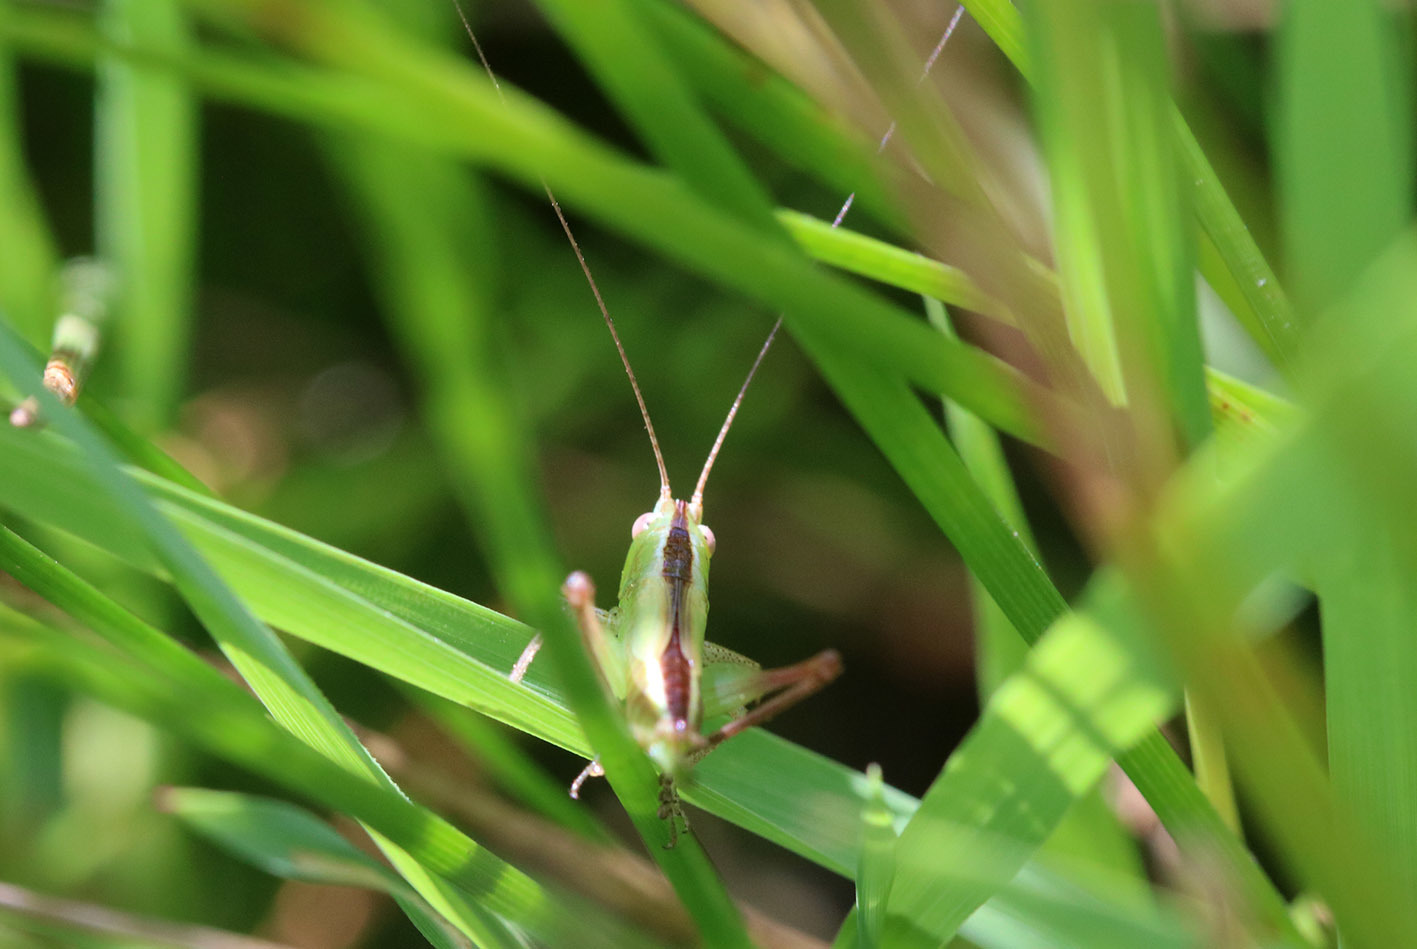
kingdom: Animalia
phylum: Arthropoda
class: Insecta
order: Orthoptera
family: Tettigoniidae
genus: Conocephalus
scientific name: Conocephalus longipes
